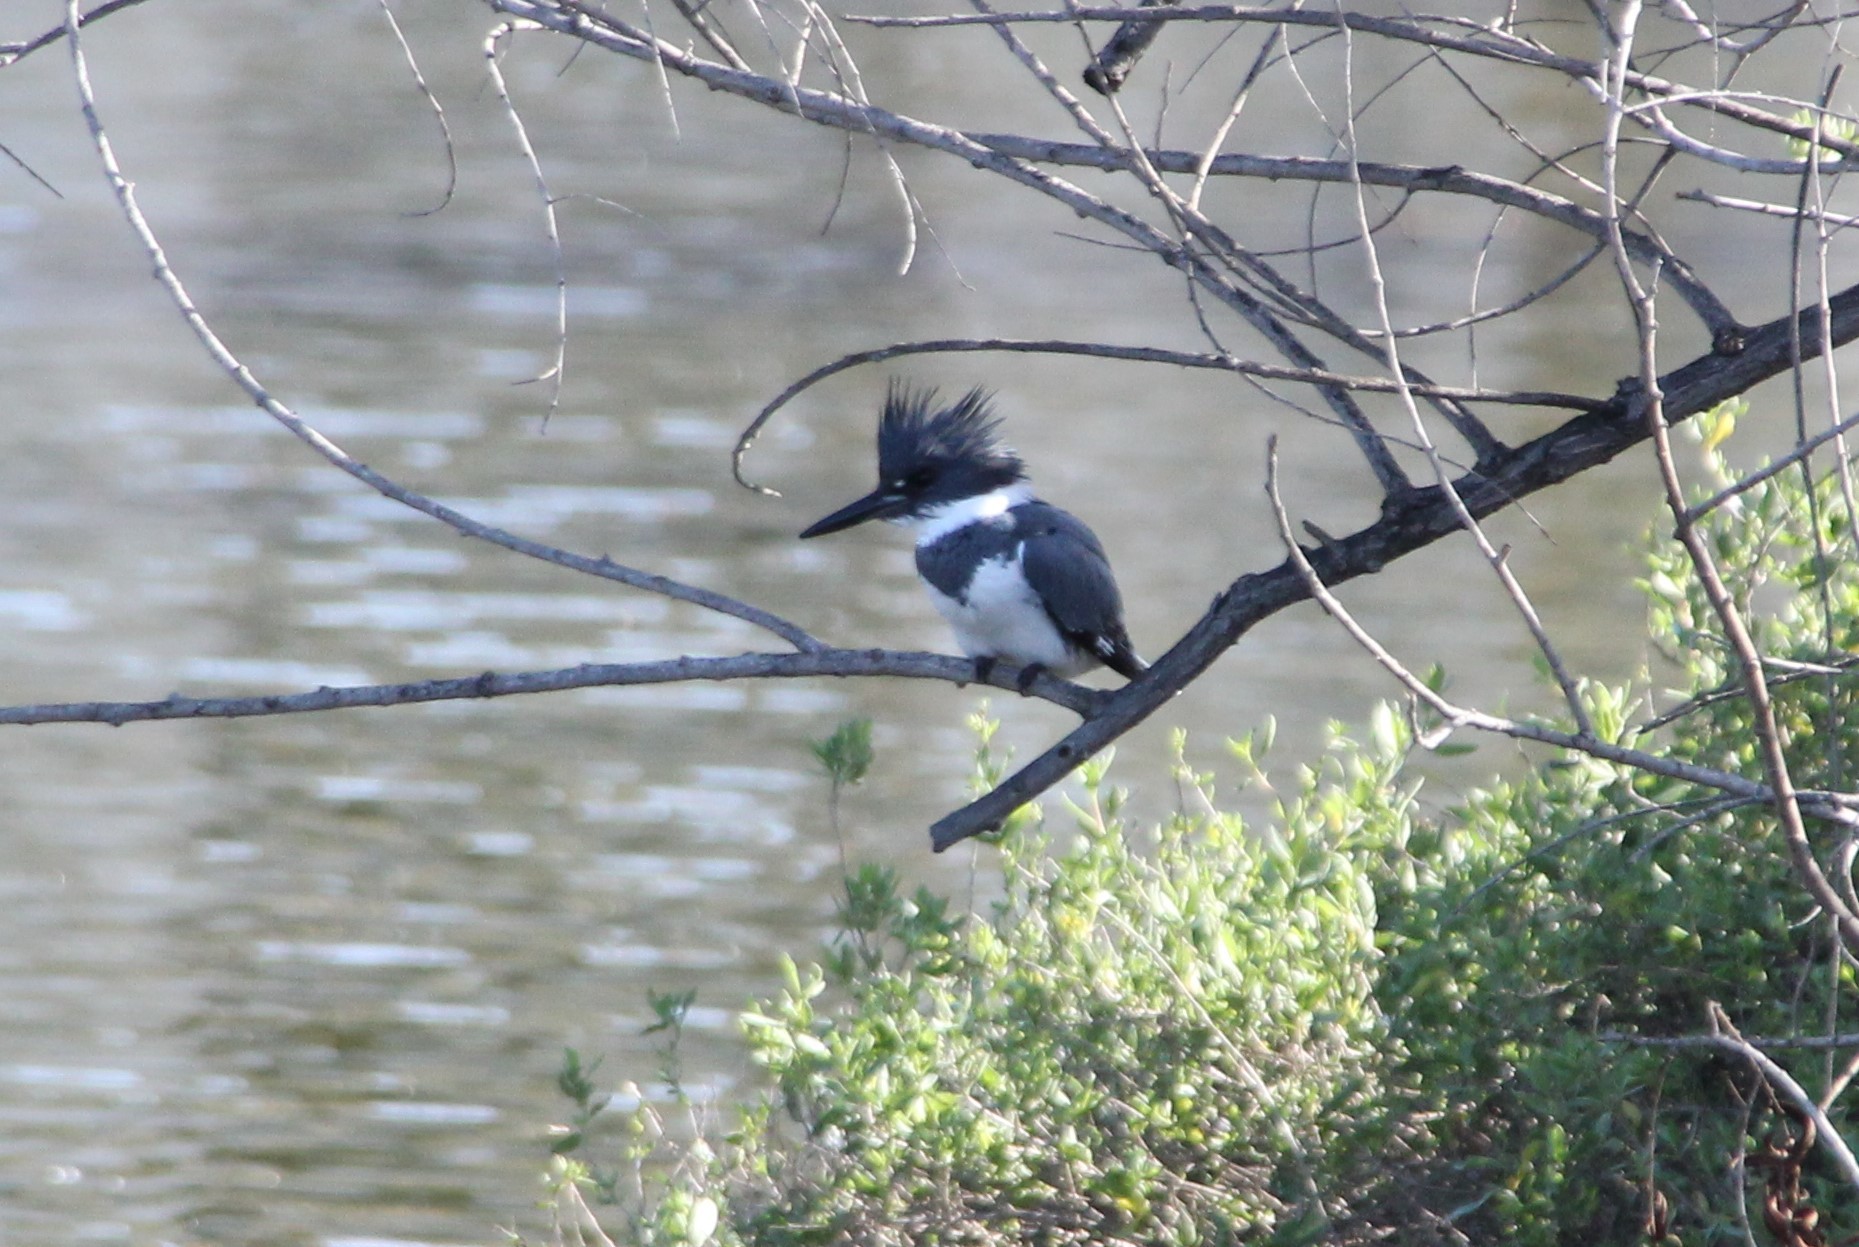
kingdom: Animalia
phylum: Chordata
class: Aves
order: Coraciiformes
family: Alcedinidae
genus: Megaceryle
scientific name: Megaceryle alcyon
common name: Belted kingfisher
